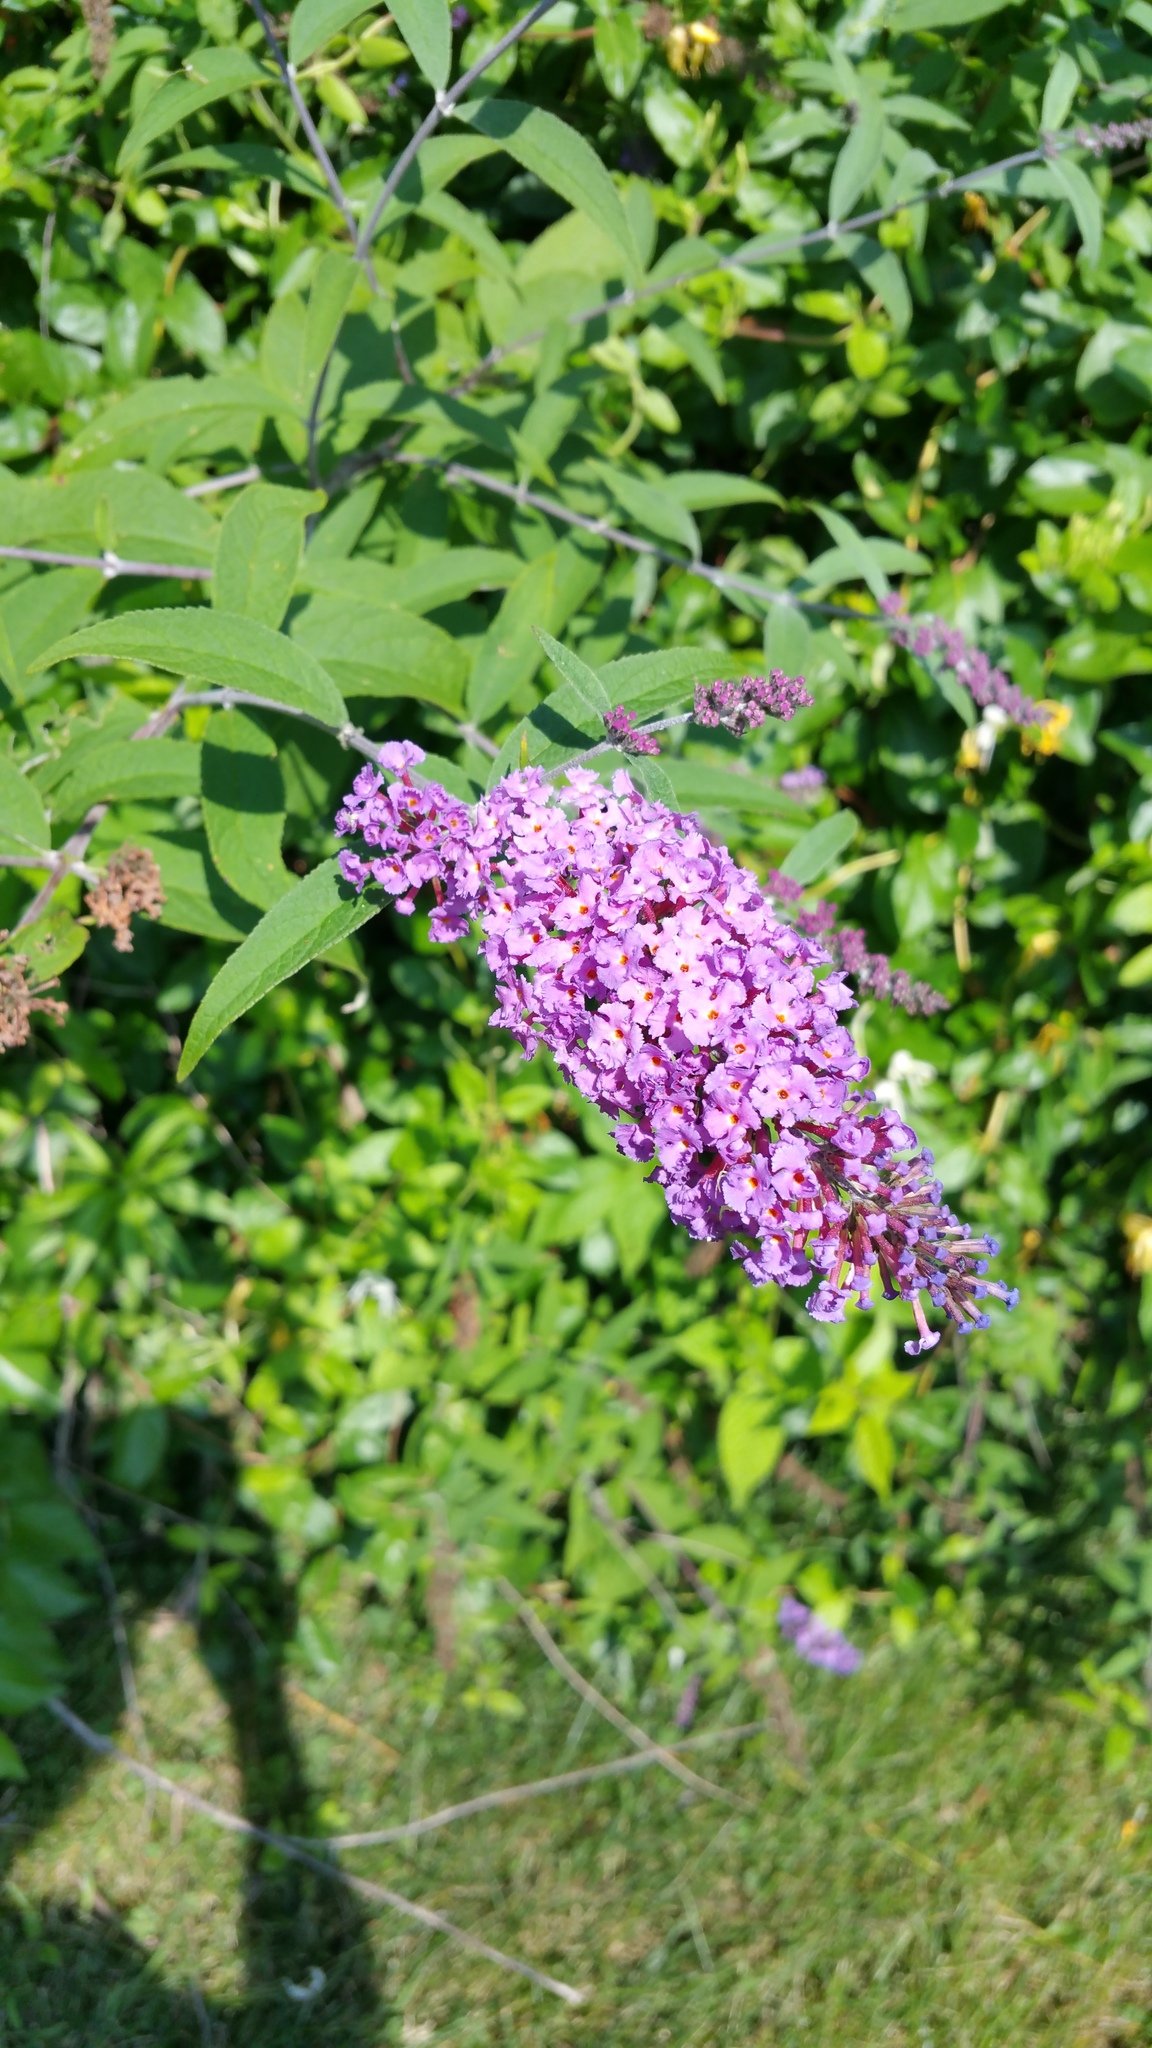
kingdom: Plantae
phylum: Tracheophyta
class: Magnoliopsida
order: Lamiales
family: Scrophulariaceae
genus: Buddleja
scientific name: Buddleja davidii
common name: Butterfly-bush
